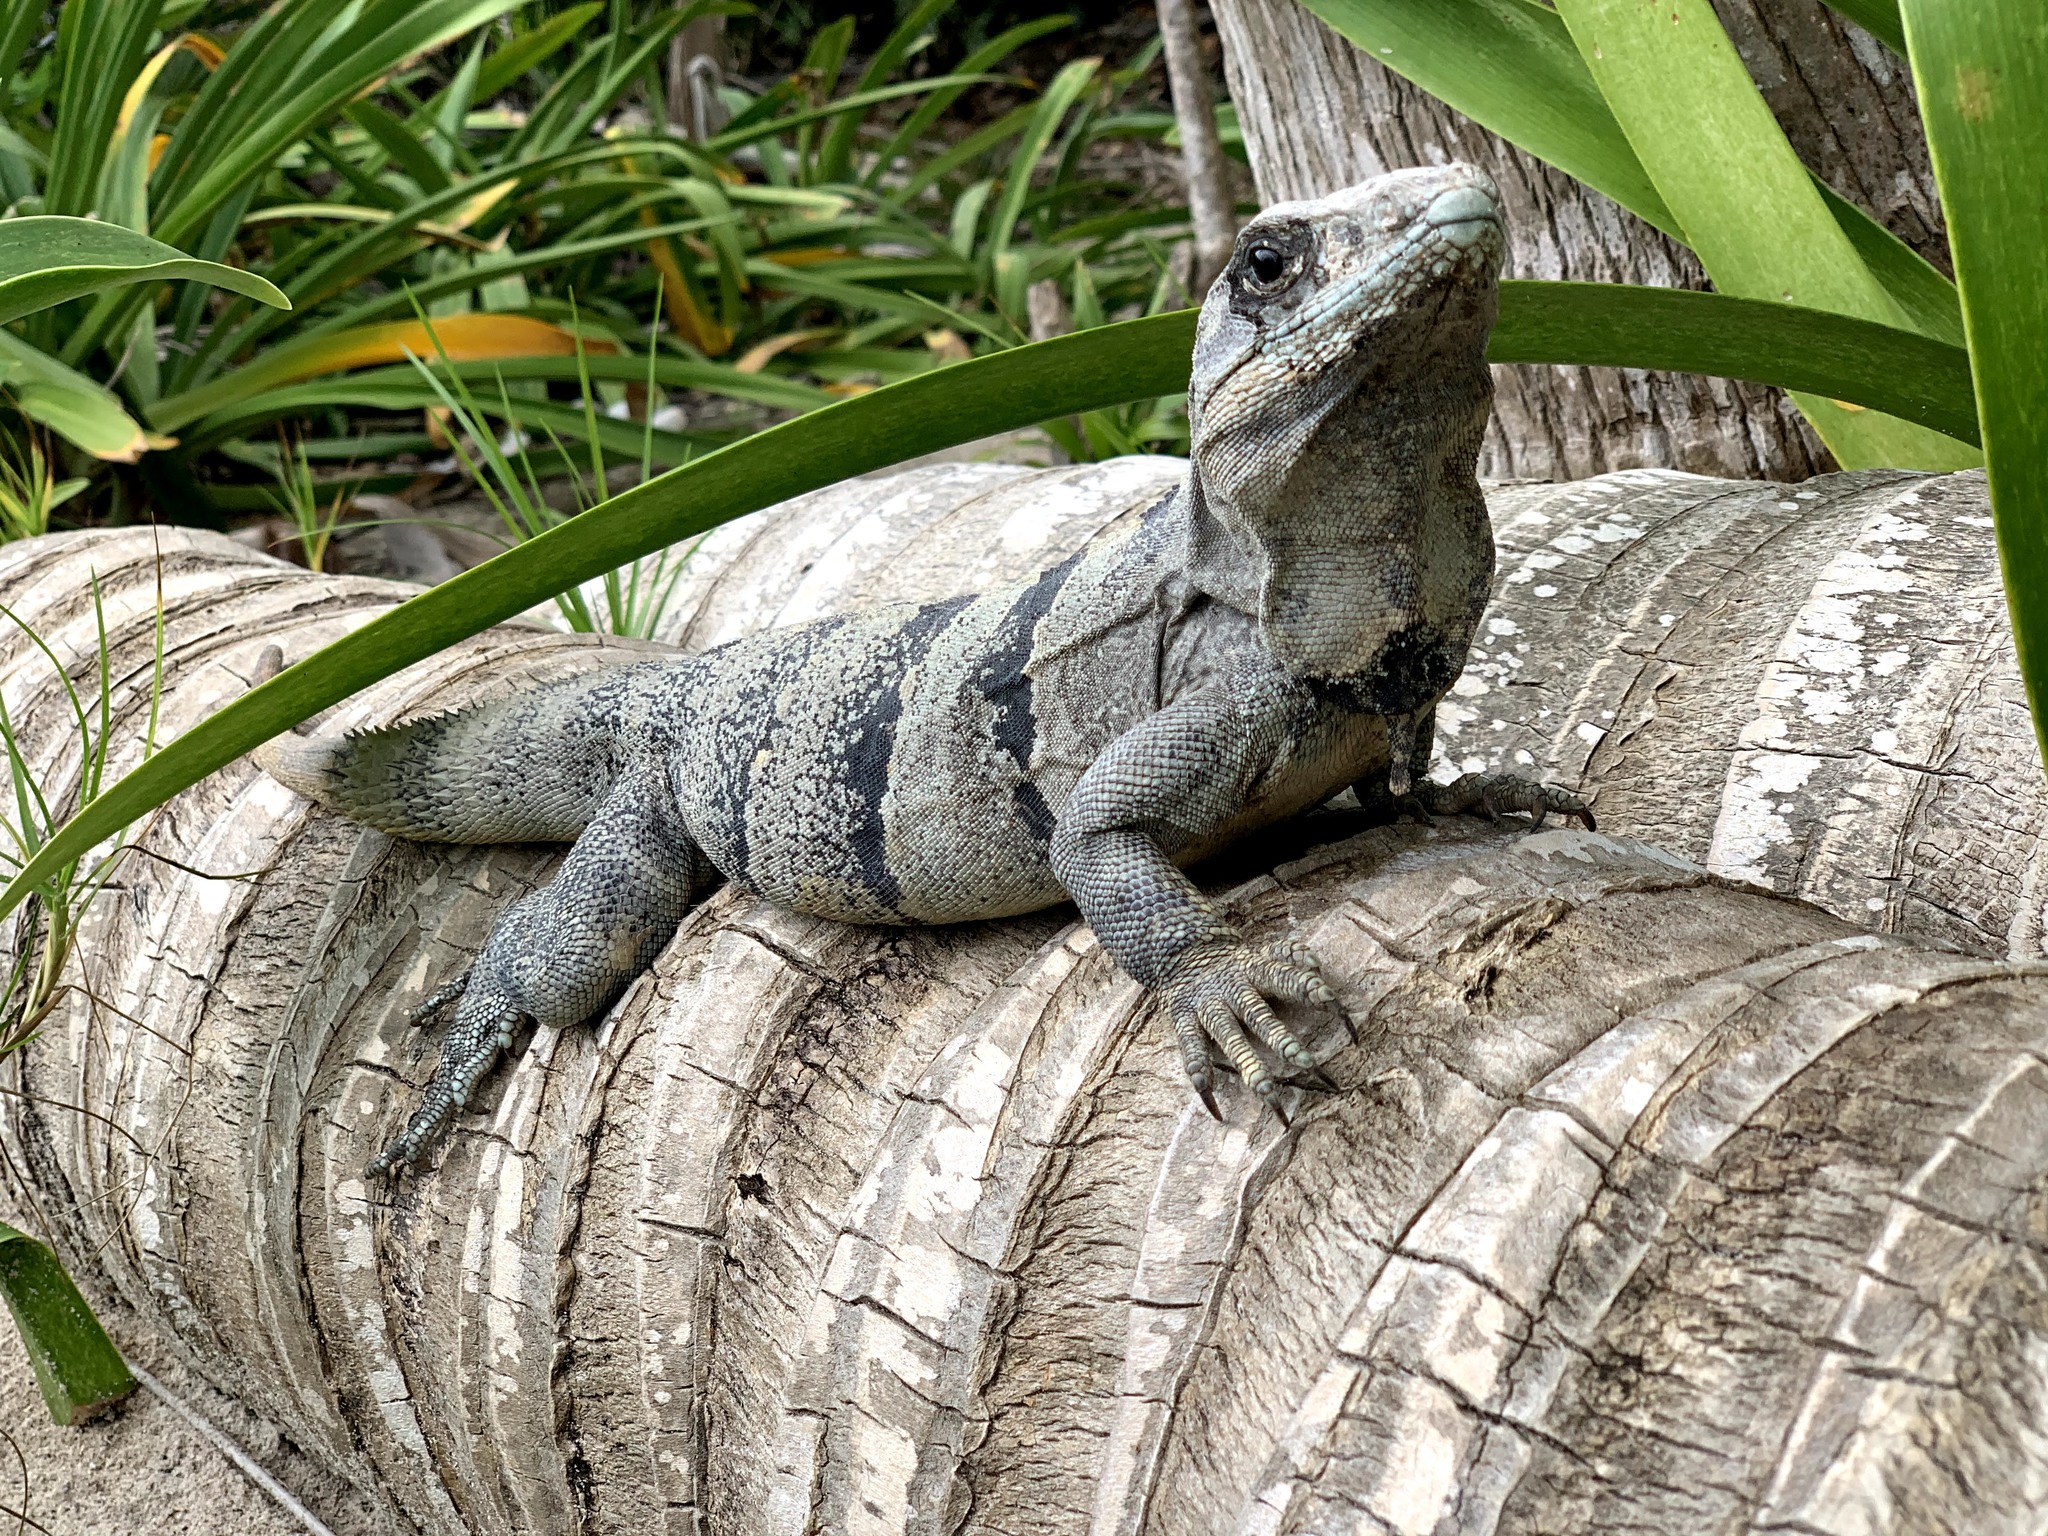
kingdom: Animalia
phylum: Chordata
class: Squamata
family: Iguanidae
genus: Ctenosaura
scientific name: Ctenosaura similis
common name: Black spiny-tailed iguana
